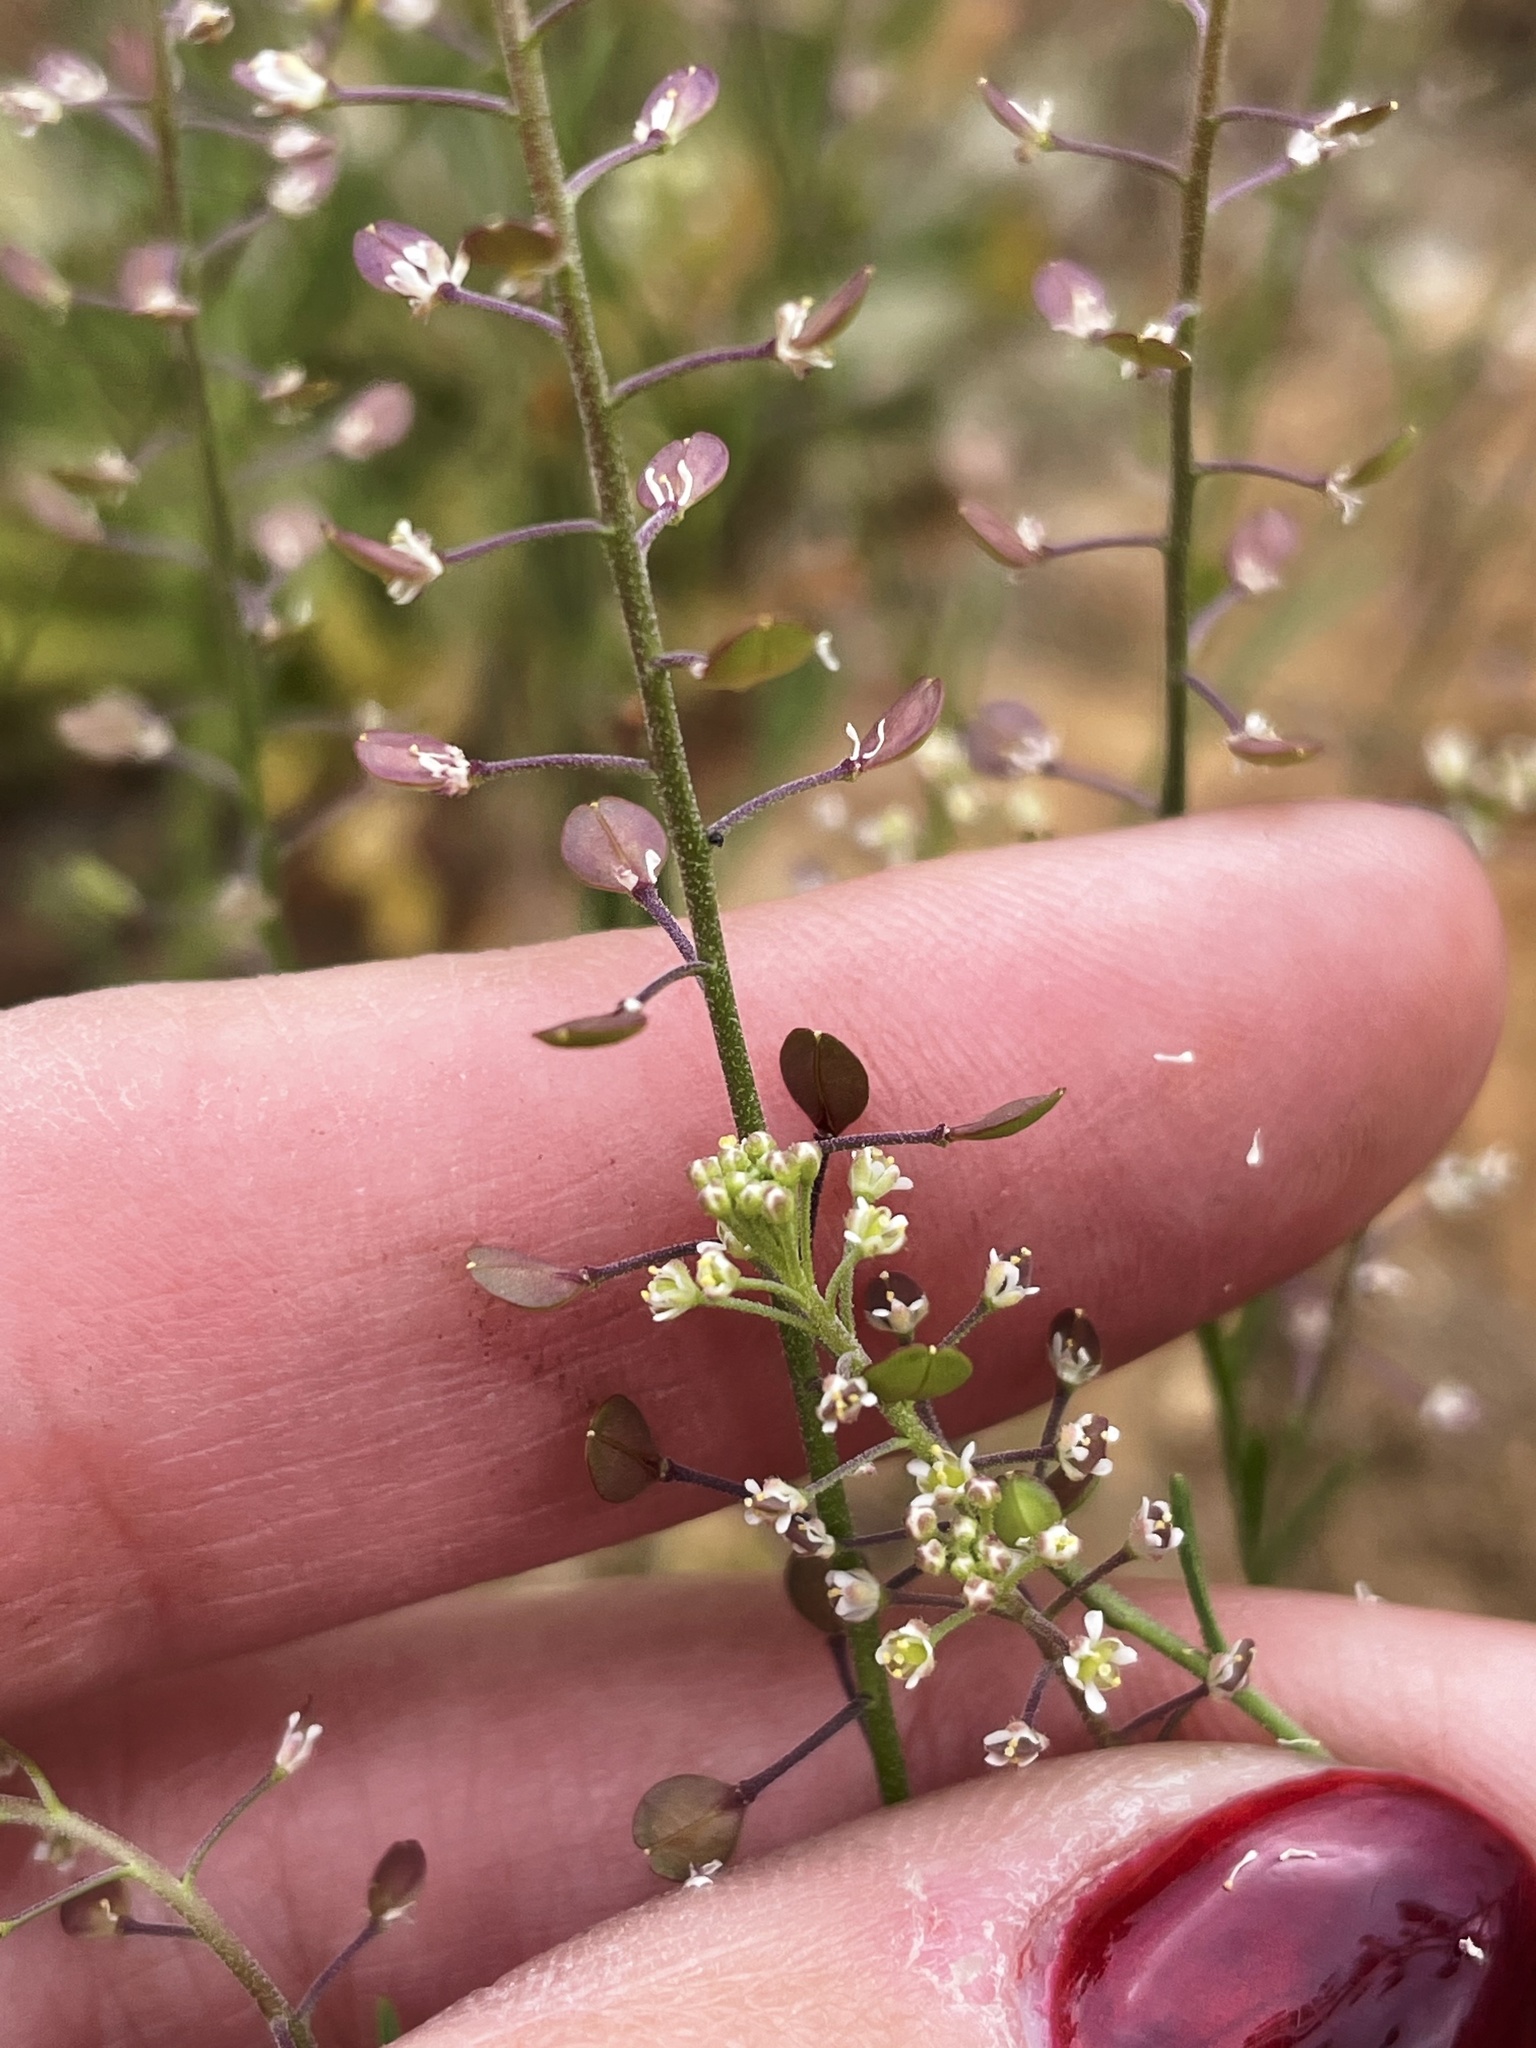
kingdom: Plantae
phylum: Tracheophyta
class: Magnoliopsida
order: Brassicales
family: Brassicaceae
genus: Lepidium
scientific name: Lepidium densiflorum
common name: Miner's pepperwort
